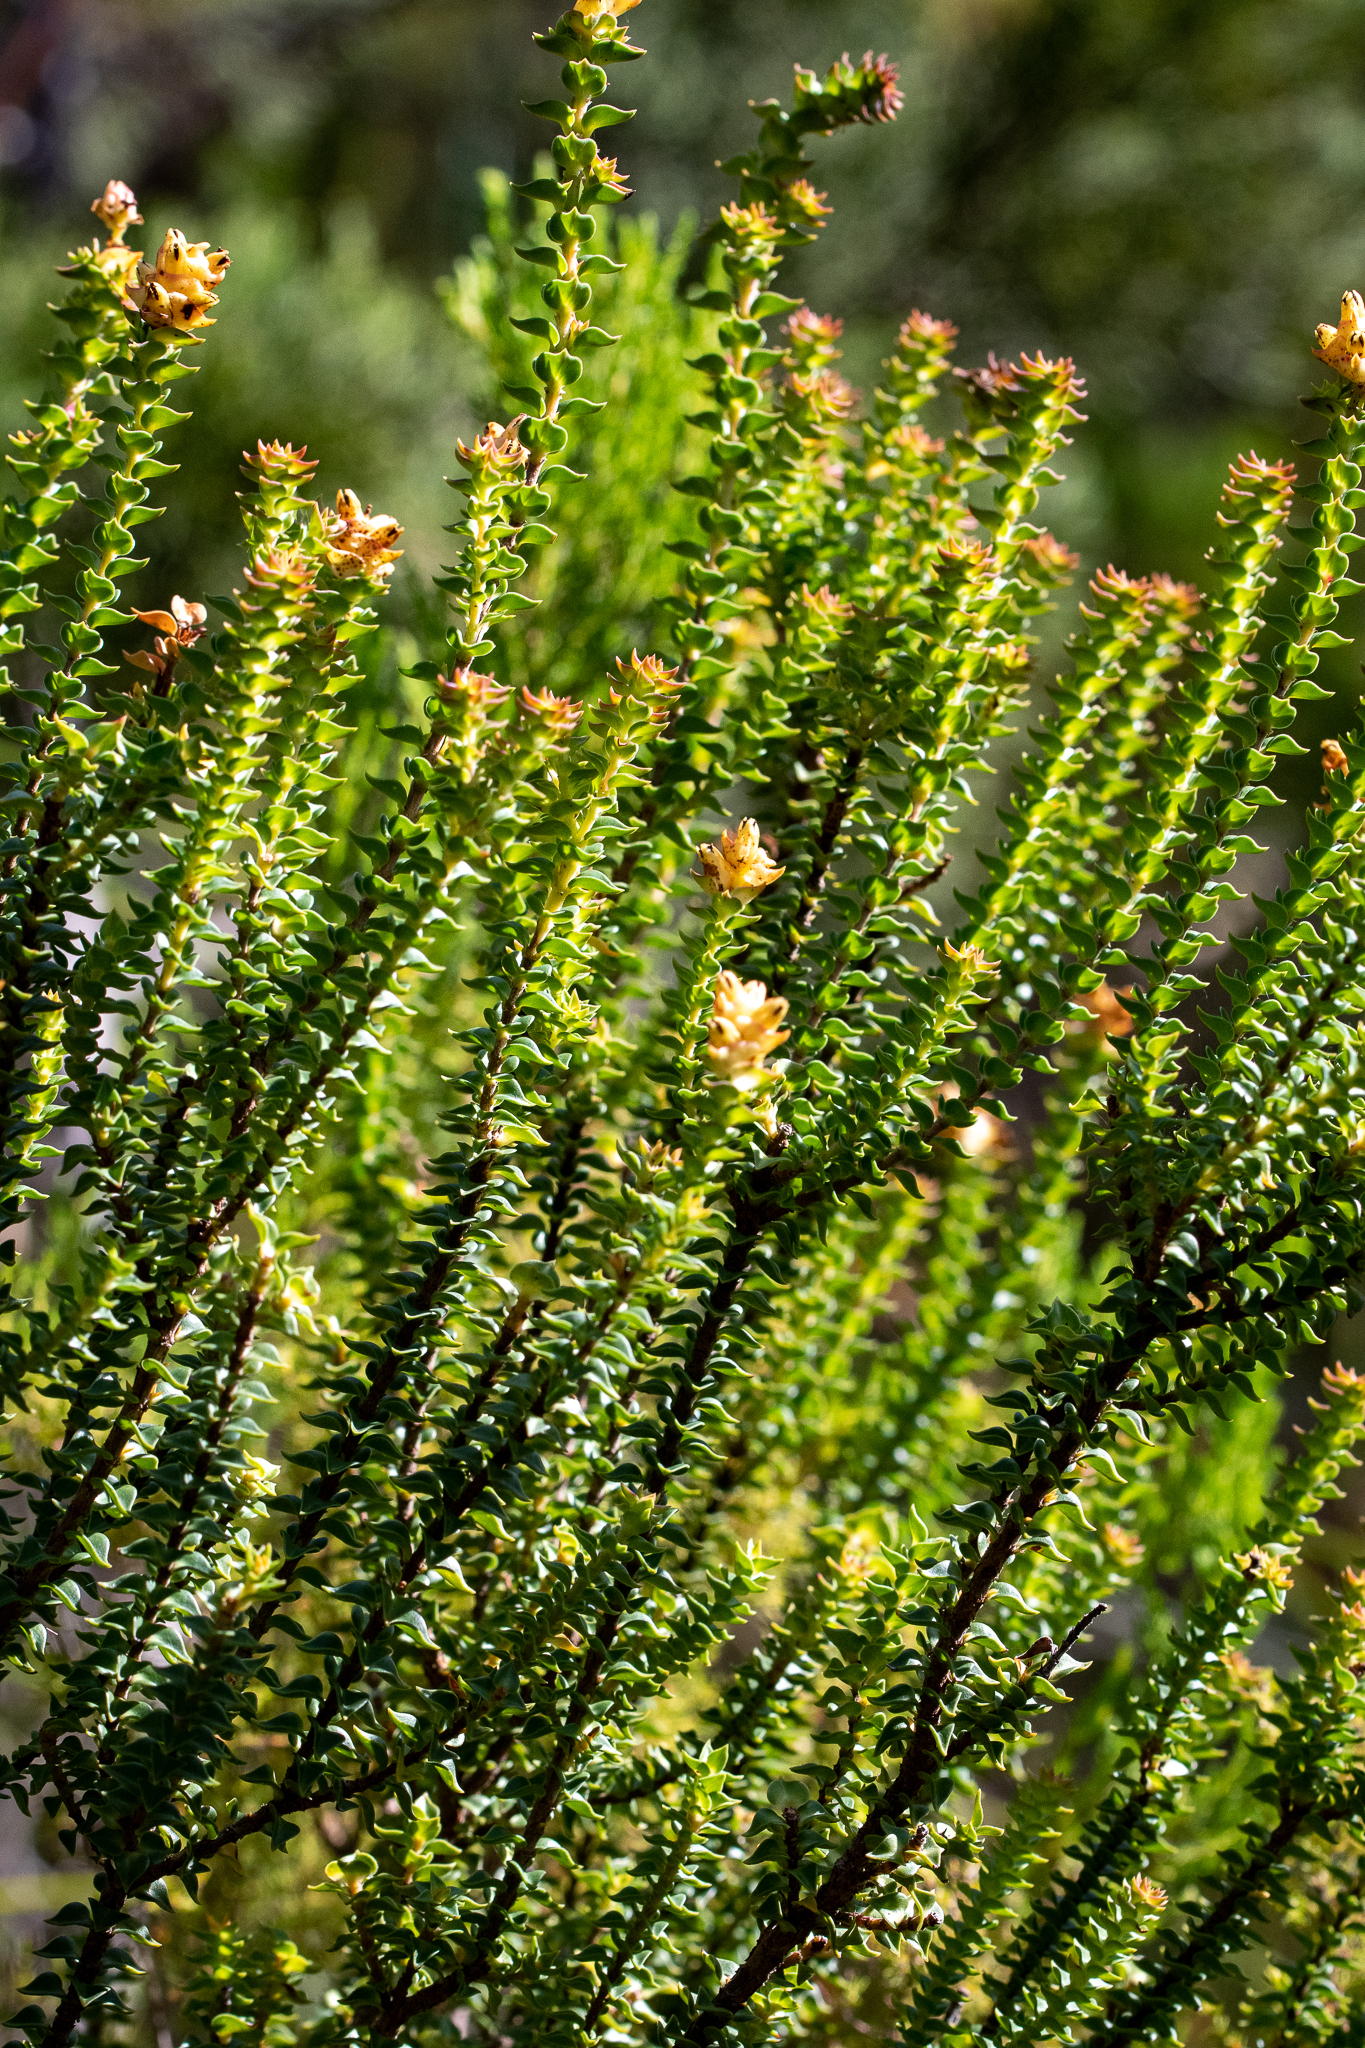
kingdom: Plantae
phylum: Tracheophyta
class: Magnoliopsida
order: Myrtales
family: Penaeaceae
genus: Penaea
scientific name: Penaea mucronata
